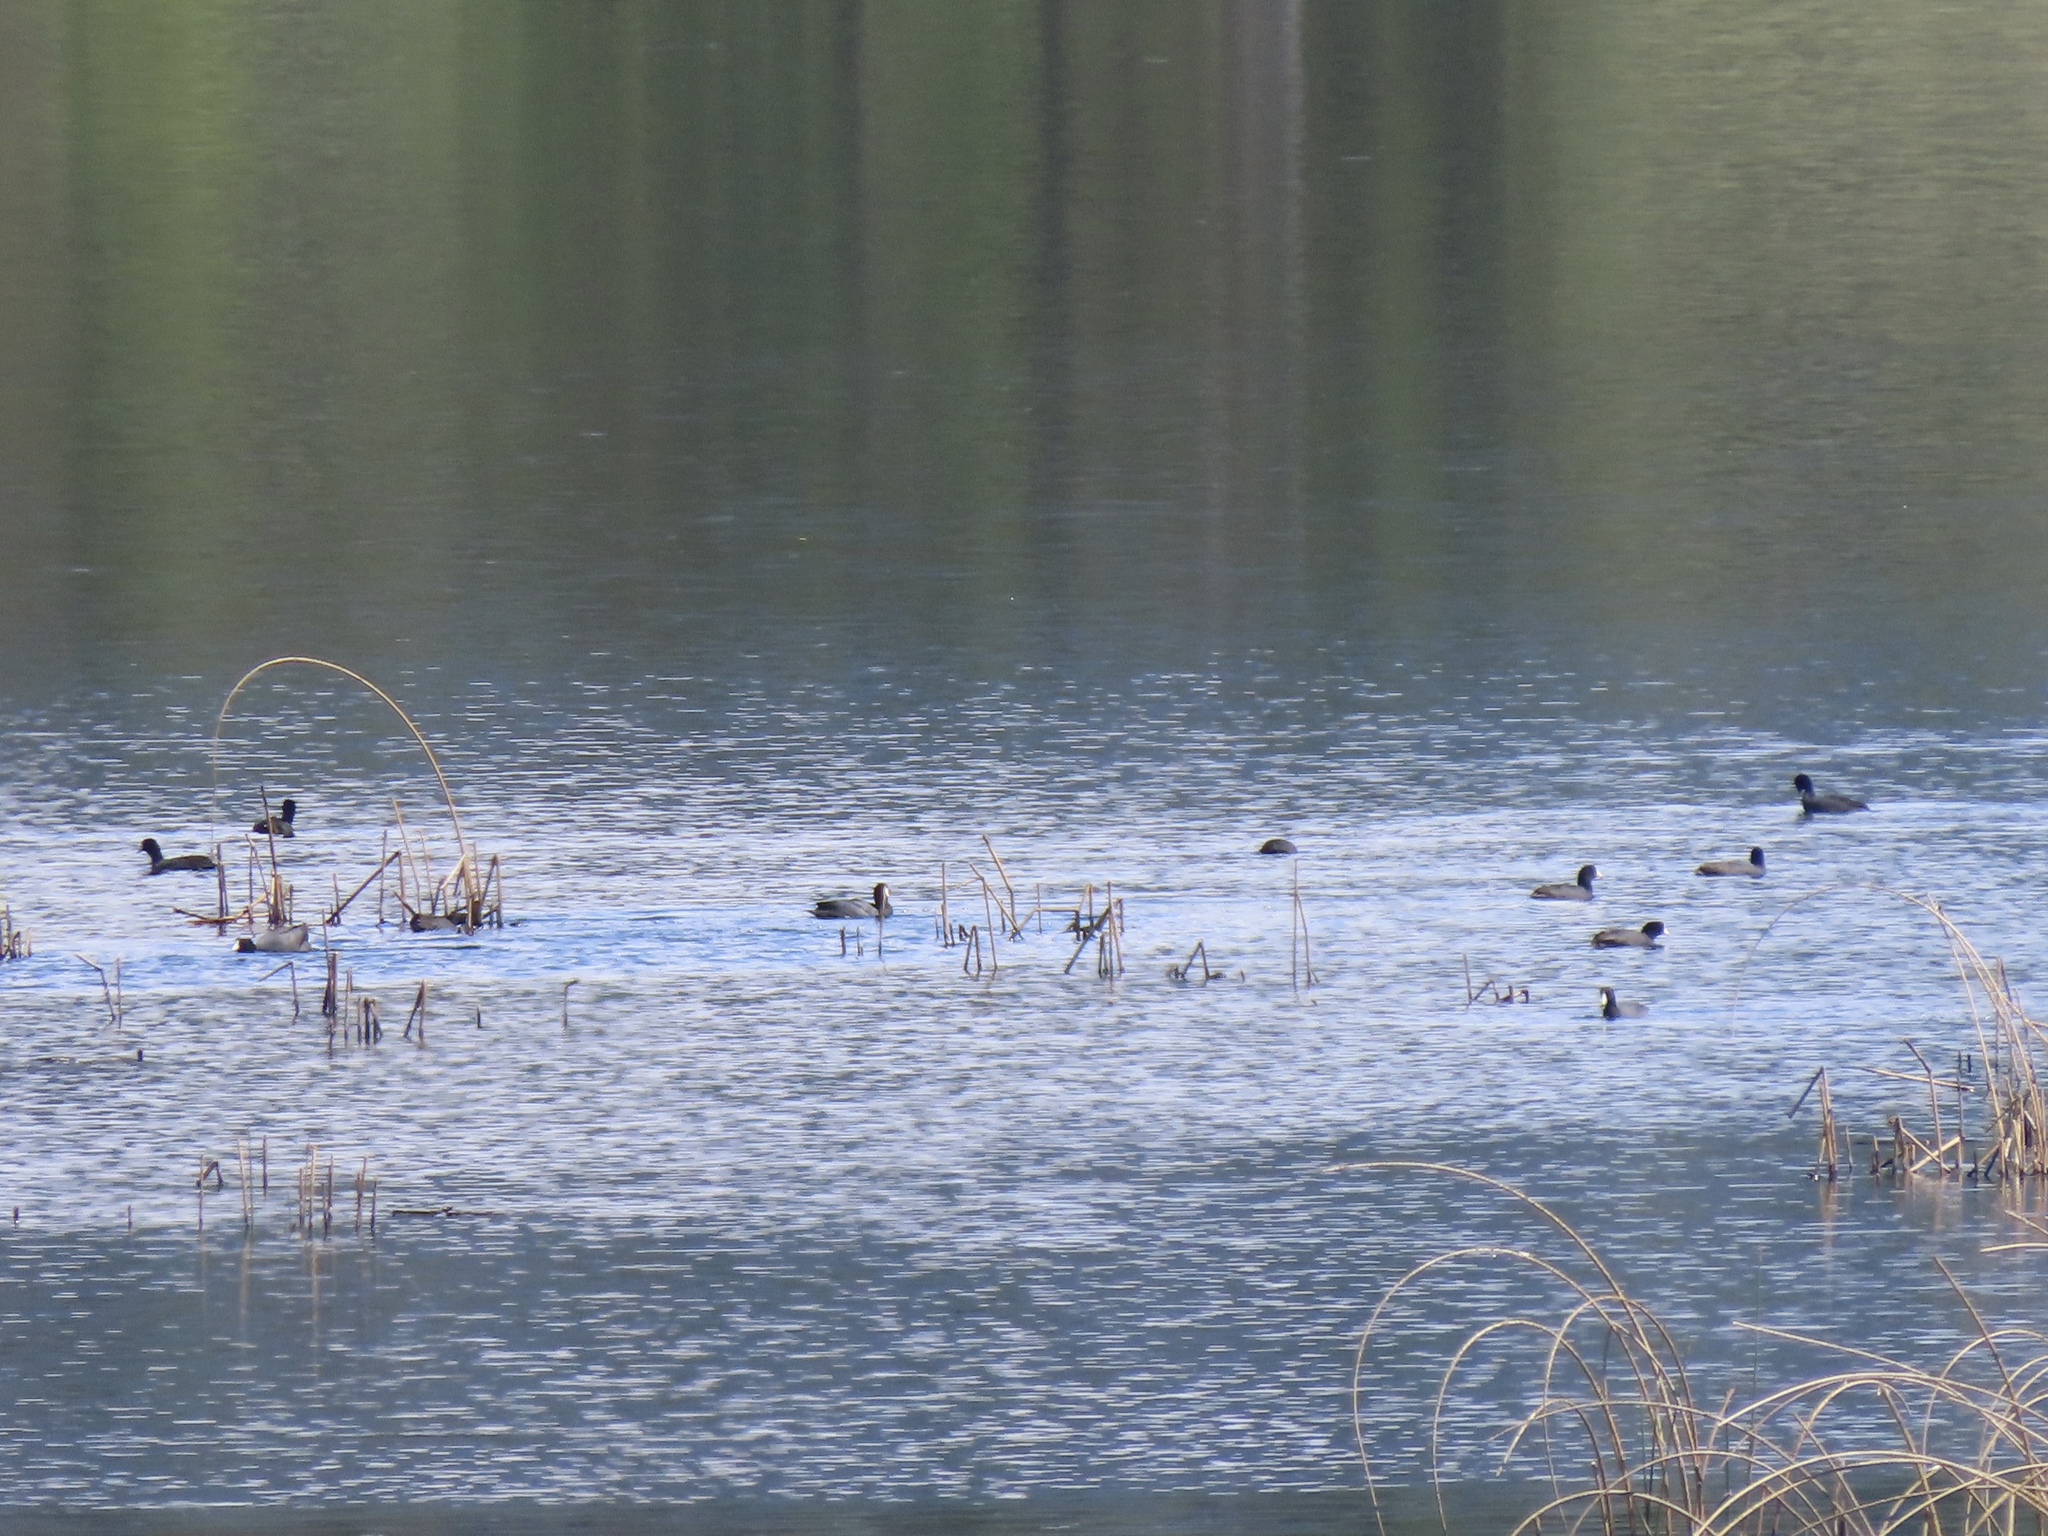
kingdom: Animalia
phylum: Chordata
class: Aves
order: Gruiformes
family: Rallidae
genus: Fulica
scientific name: Fulica americana
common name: American coot
